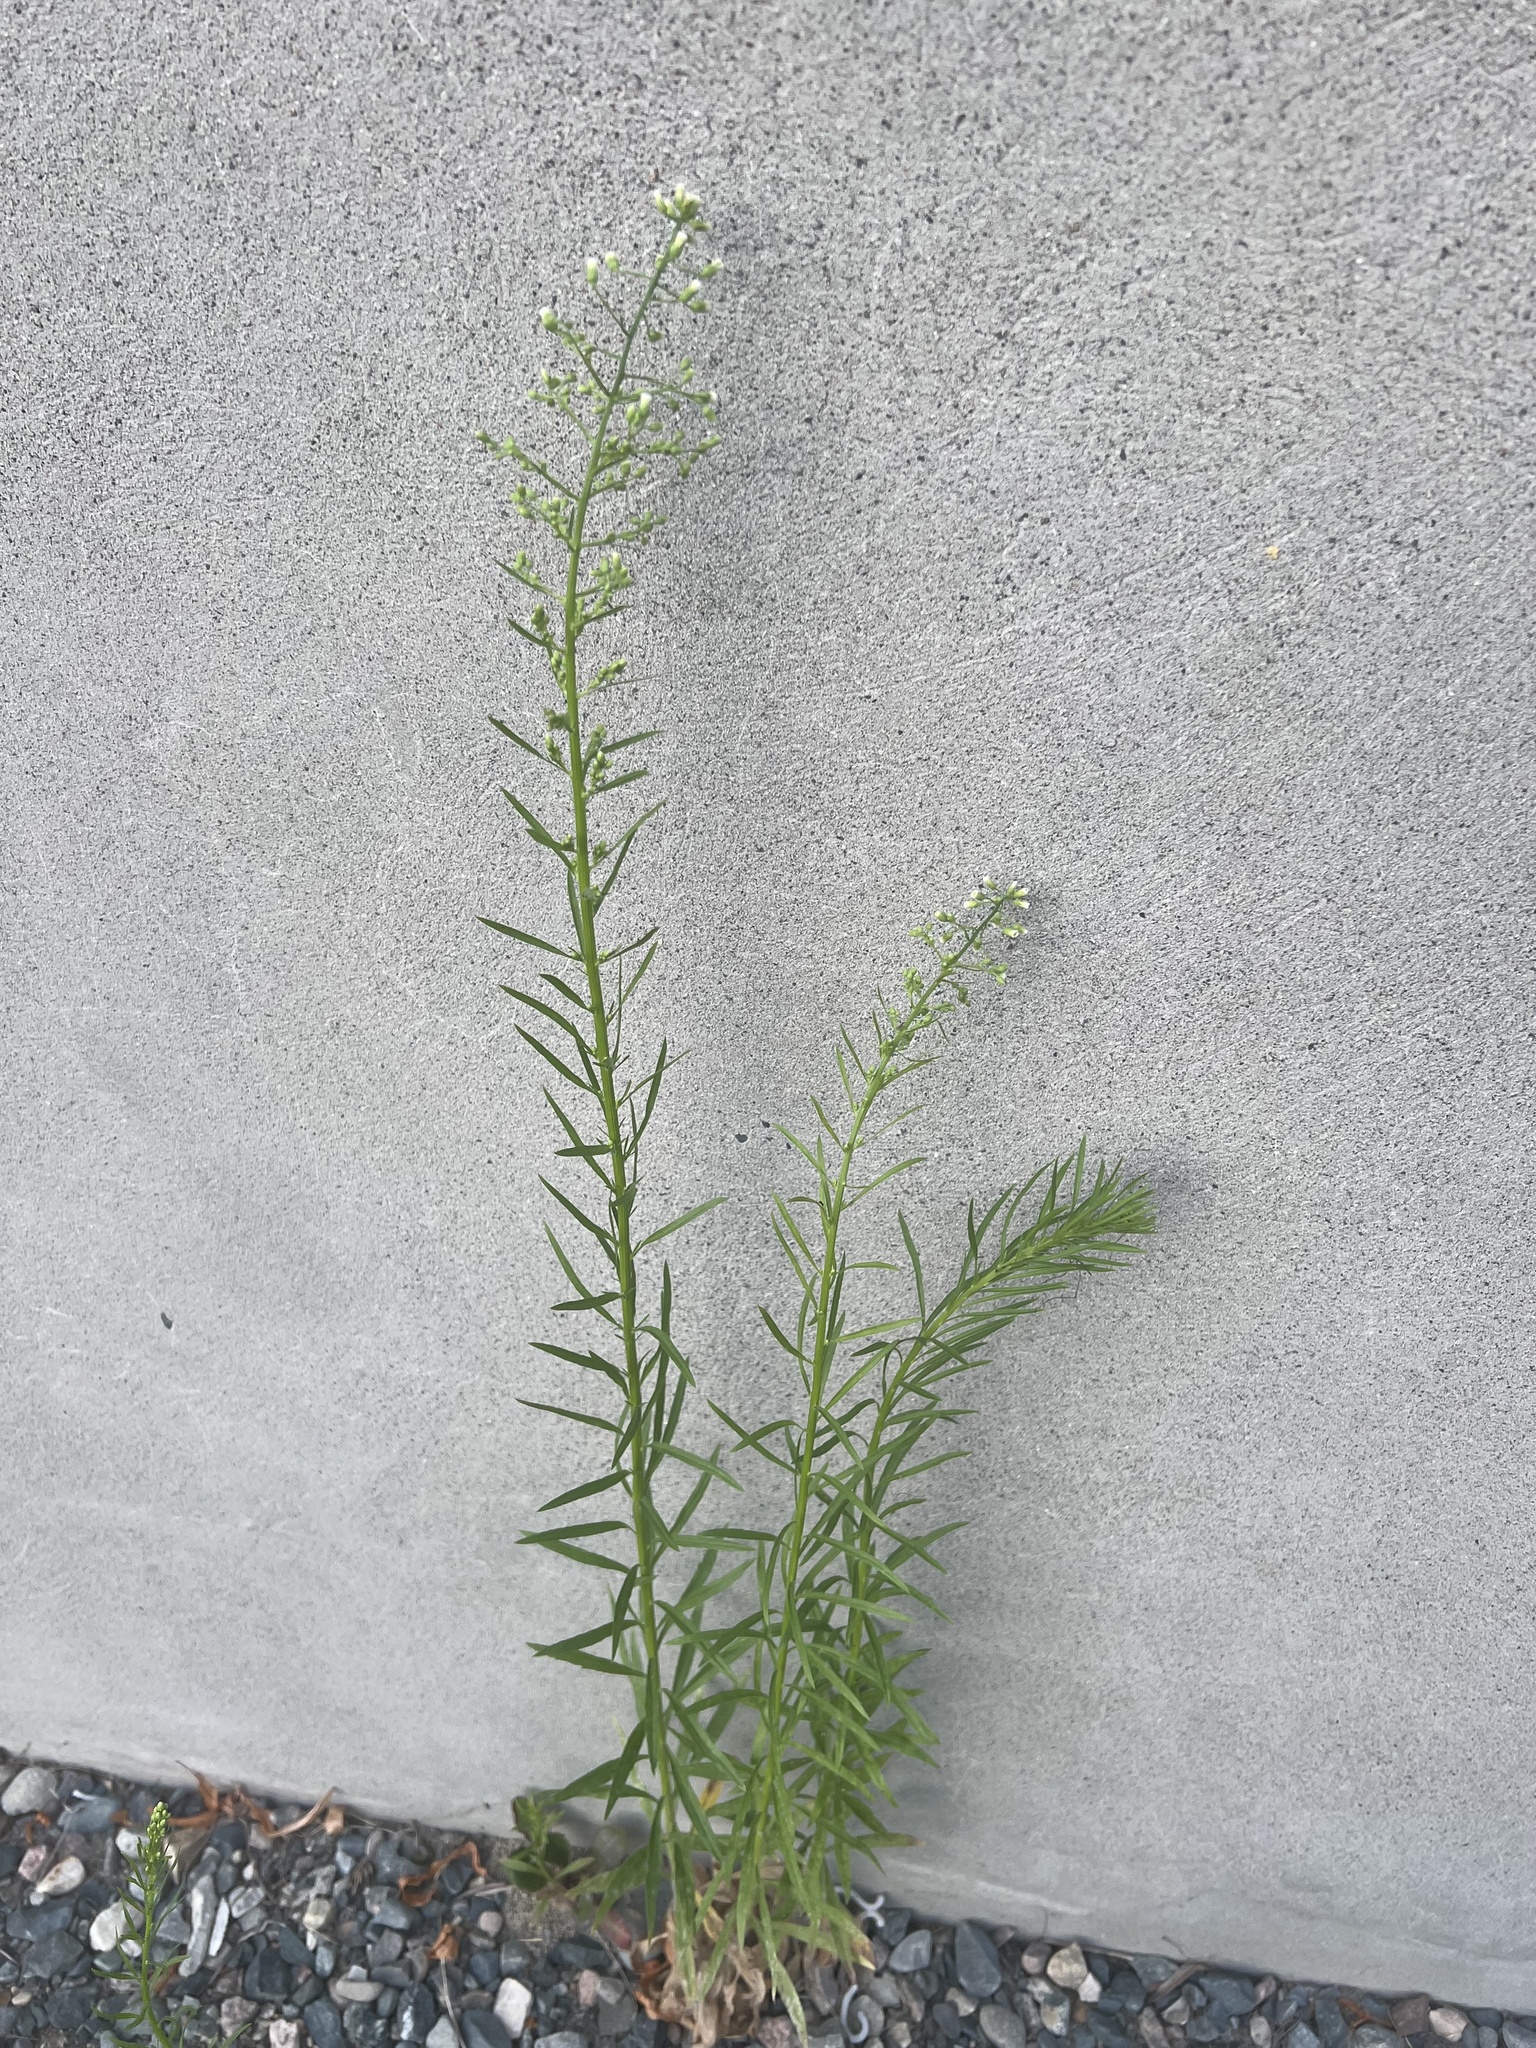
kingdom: Plantae
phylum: Tracheophyta
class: Magnoliopsida
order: Asterales
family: Asteraceae
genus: Erigeron
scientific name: Erigeron canadensis
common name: Canadian fleabane
